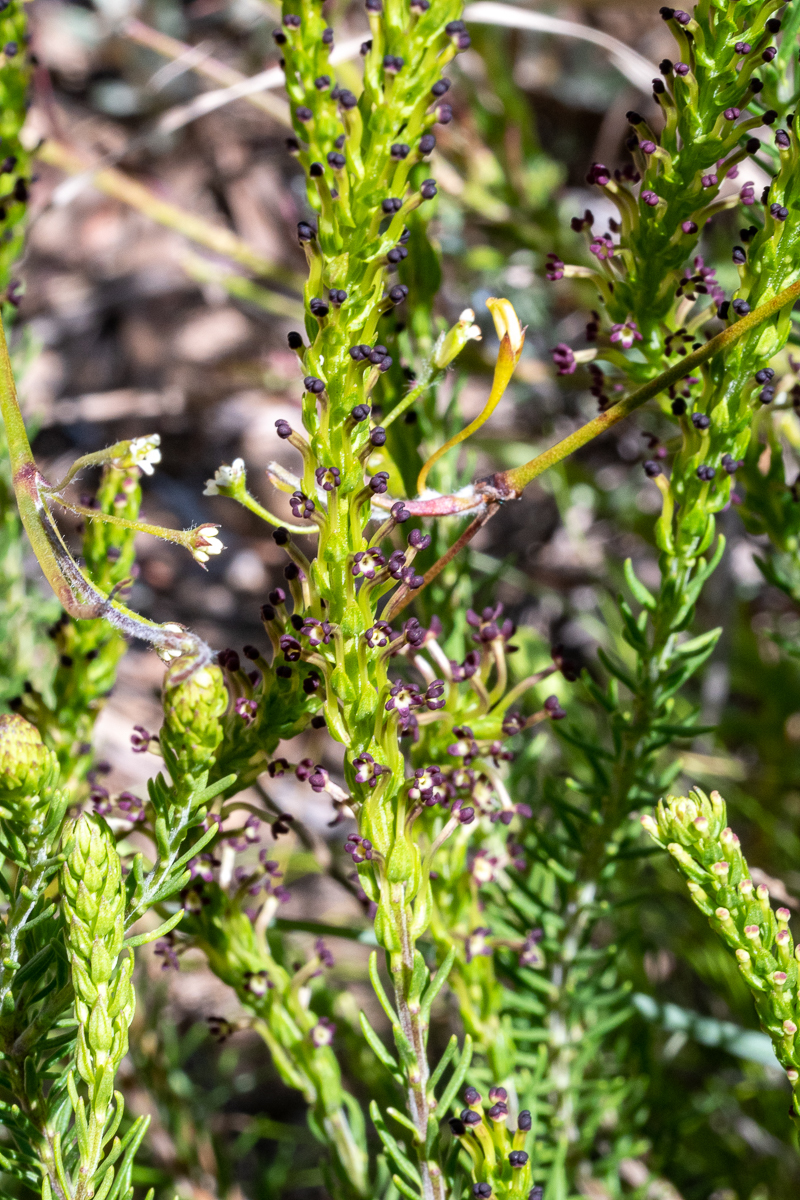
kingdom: Plantae
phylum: Tracheophyta
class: Magnoliopsida
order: Lamiales
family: Scrophulariaceae
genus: Microdon
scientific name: Microdon dubius
